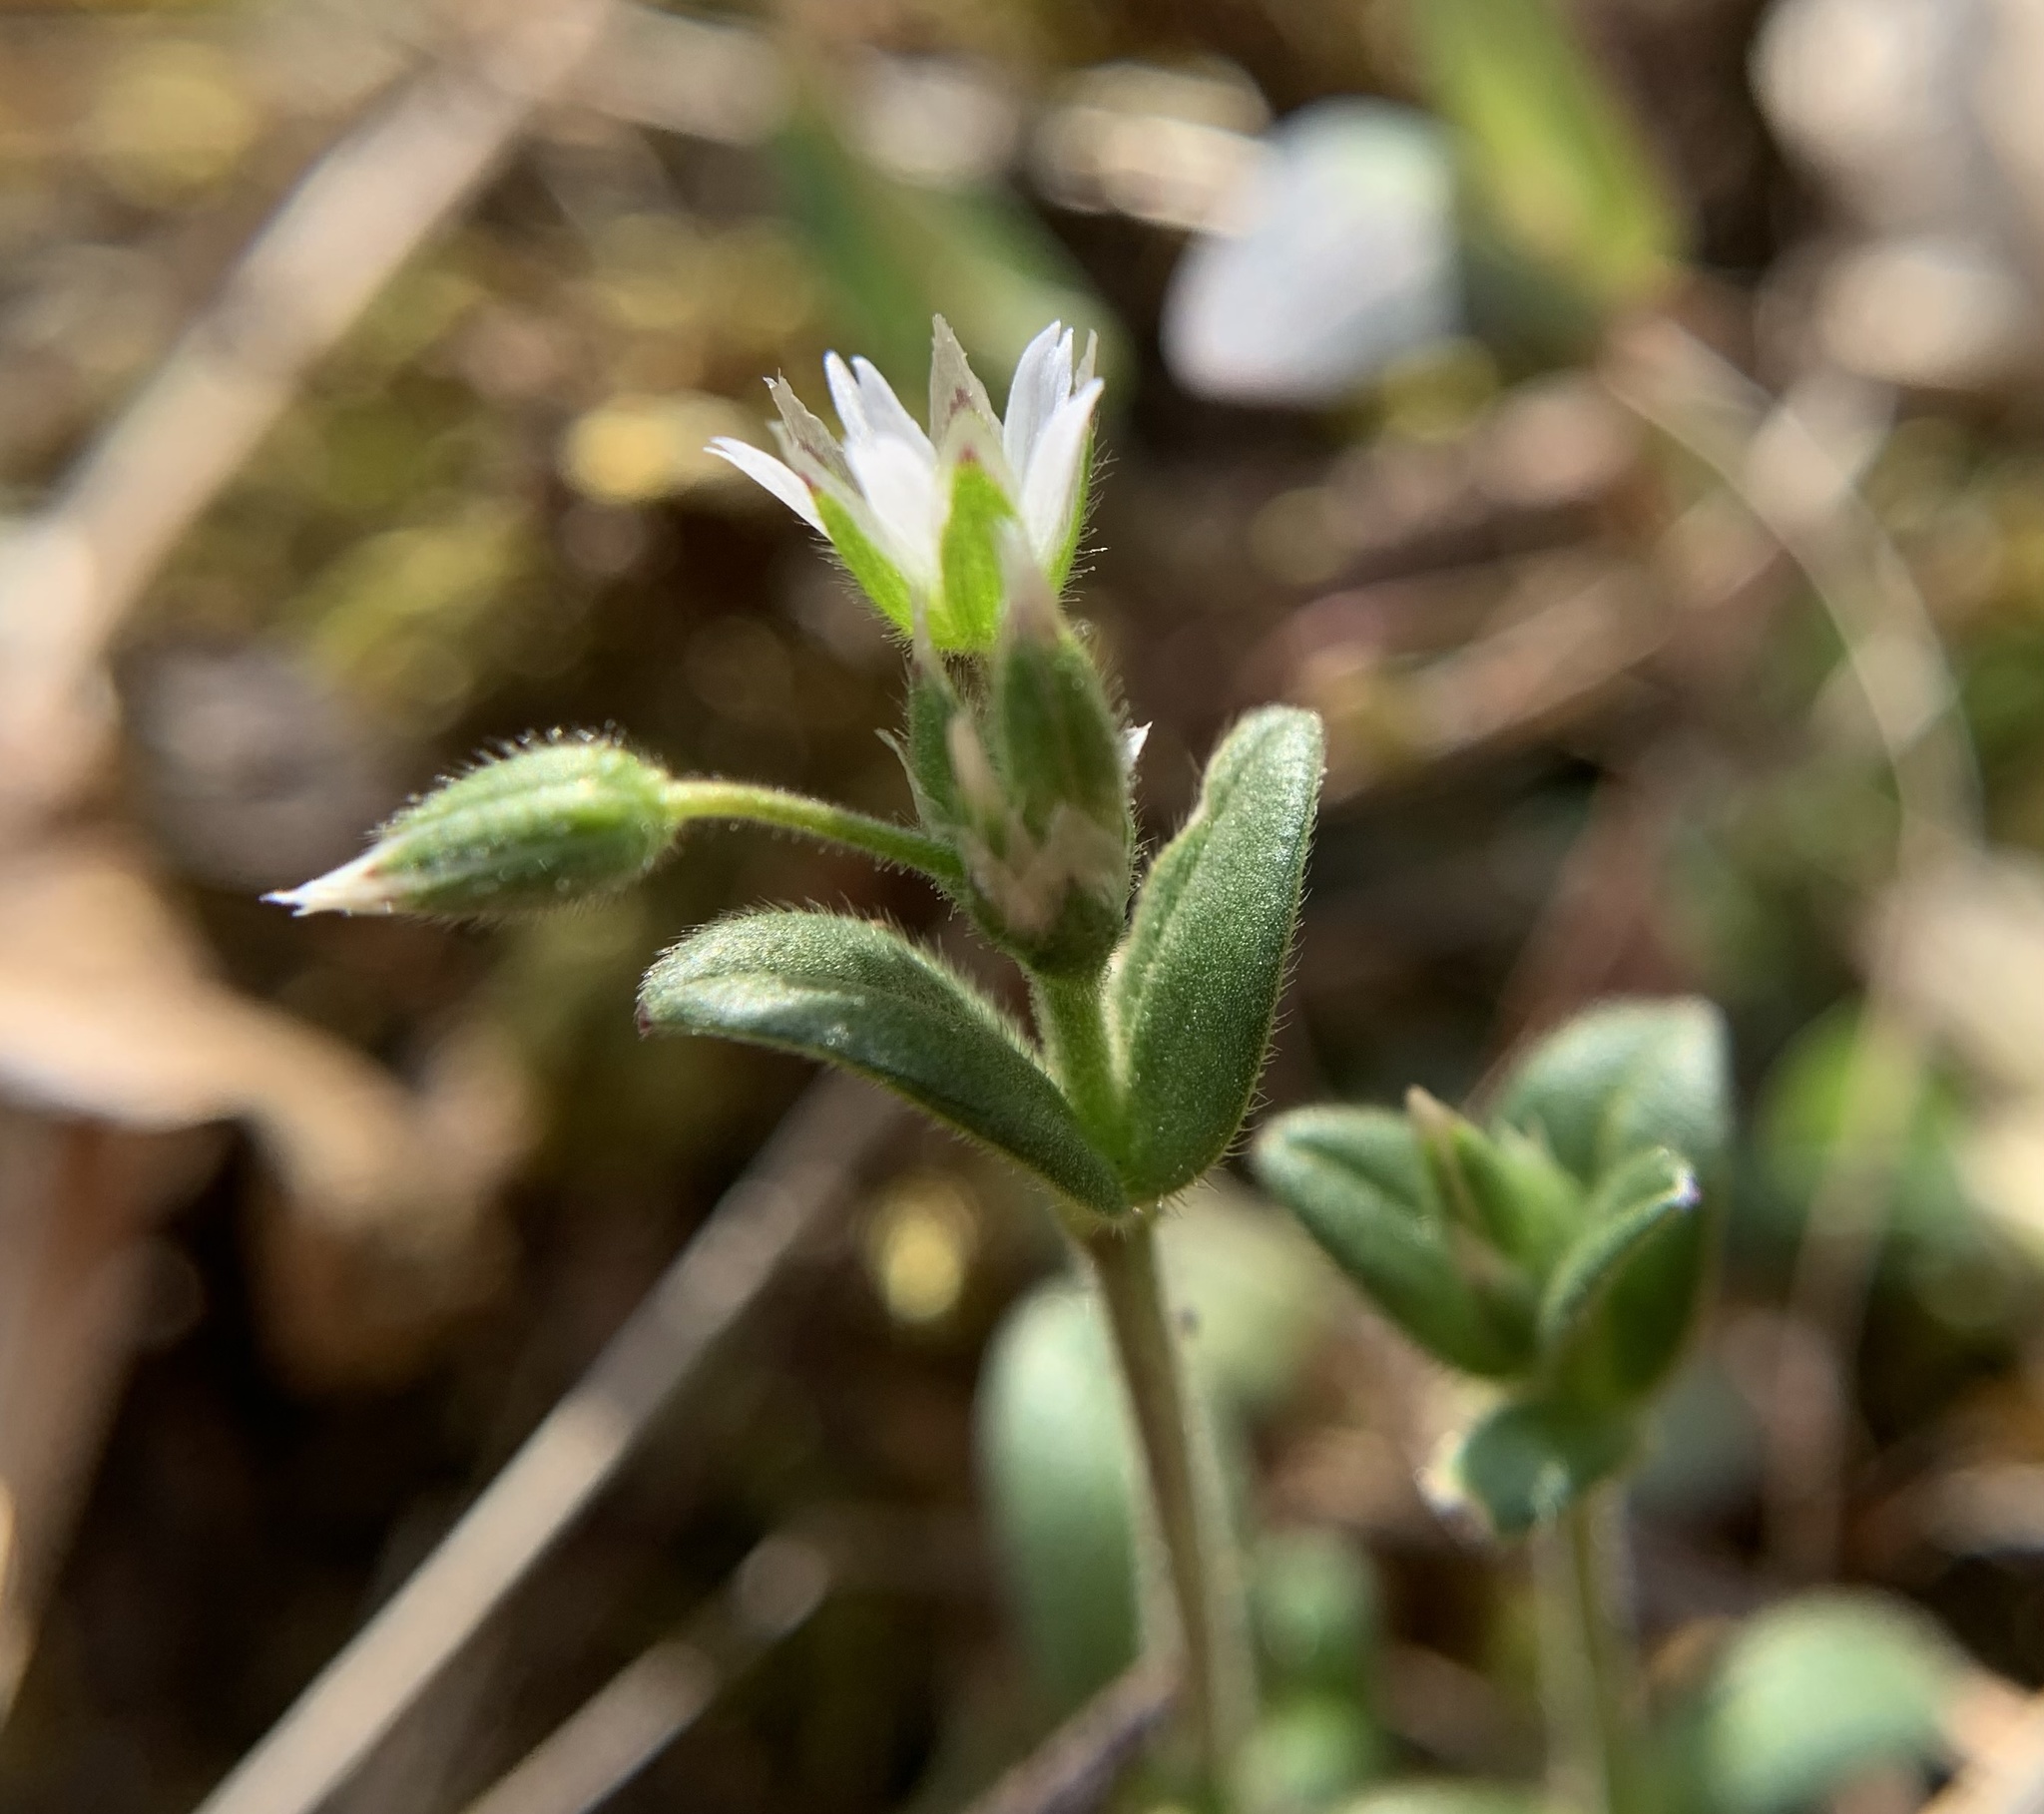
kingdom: Plantae
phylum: Tracheophyta
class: Magnoliopsida
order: Caryophyllales
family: Caryophyllaceae
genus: Cerastium
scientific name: Cerastium semidecandrum
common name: Little mouse-ear
